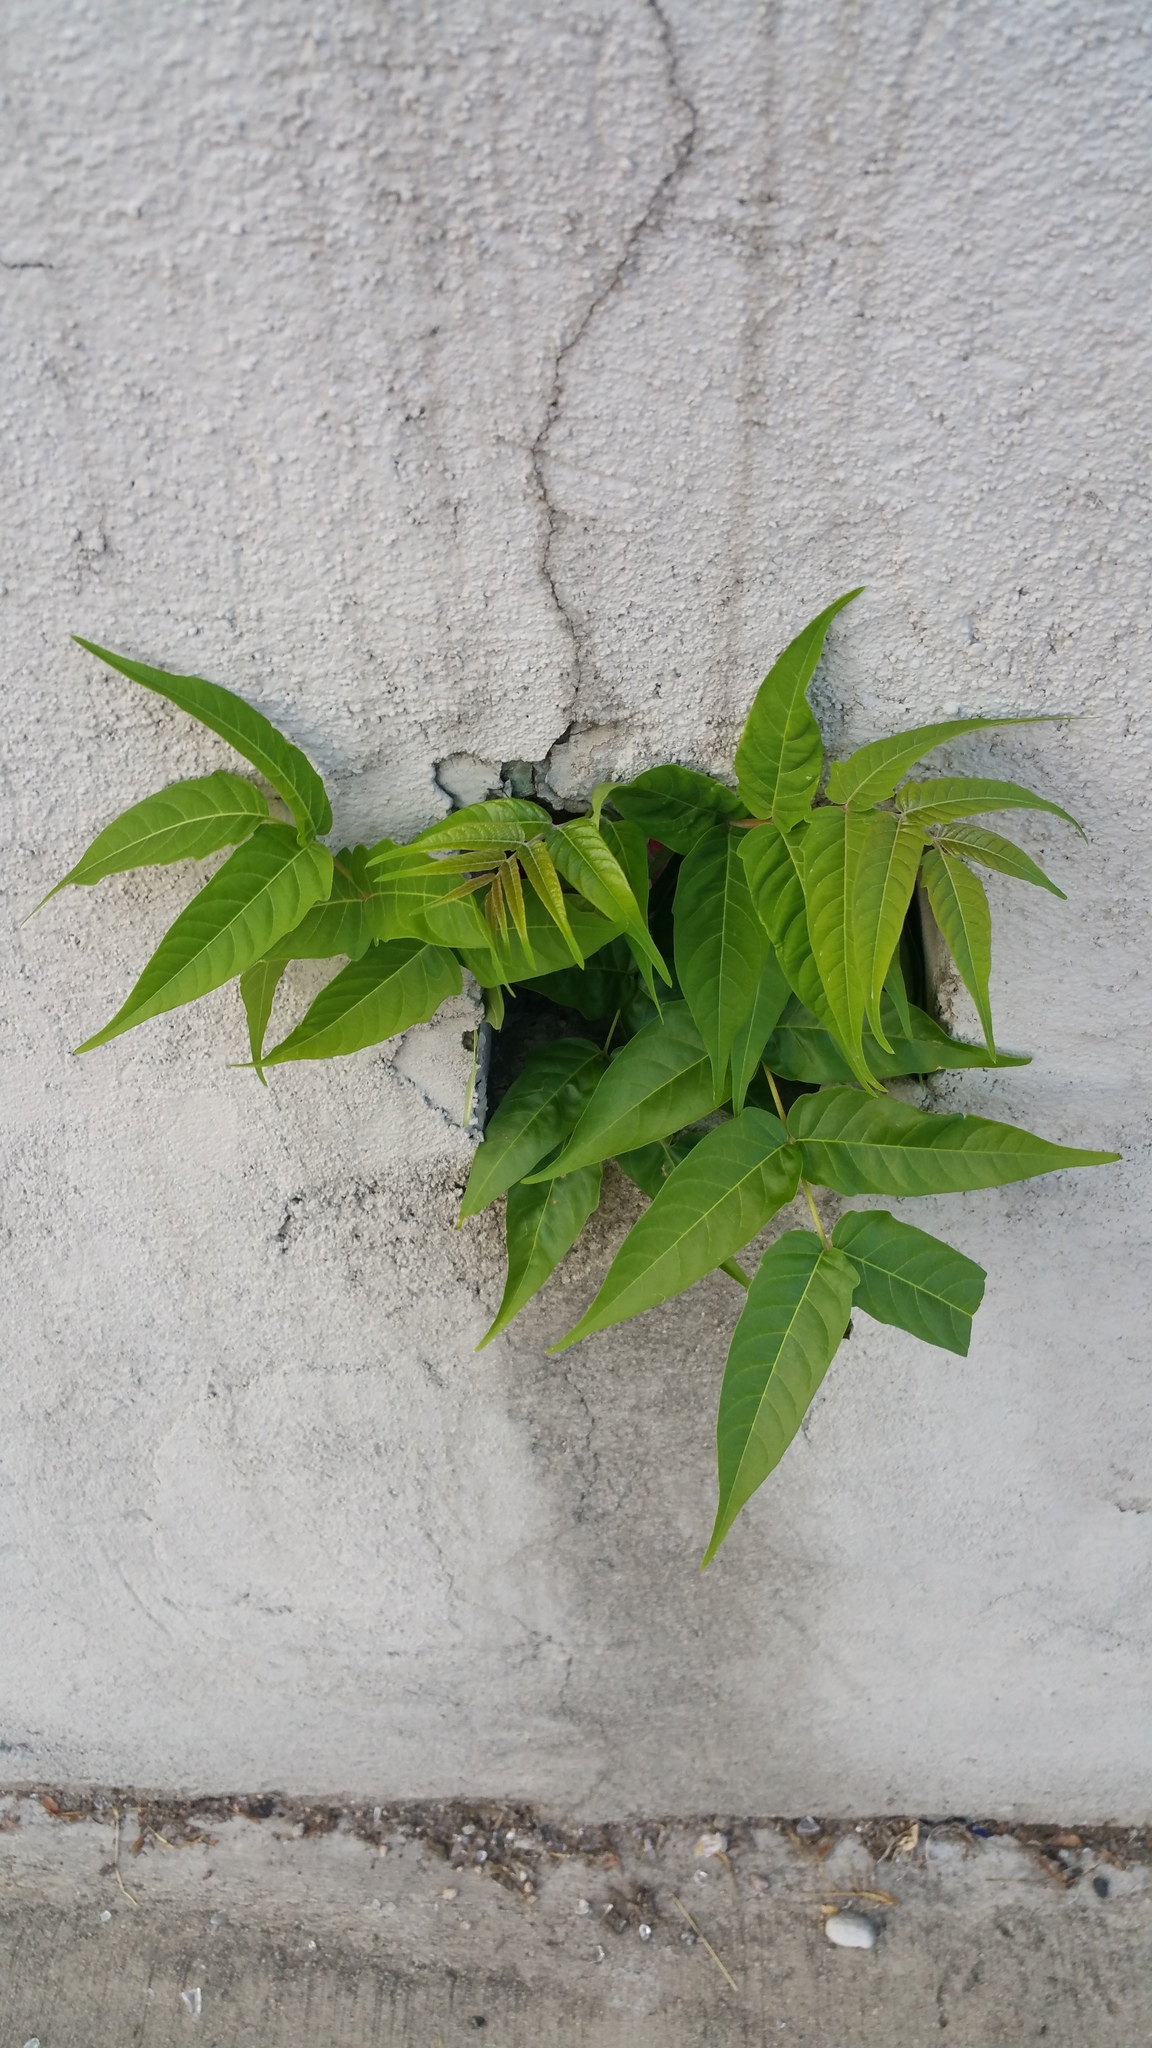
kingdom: Plantae
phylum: Tracheophyta
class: Magnoliopsida
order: Sapindales
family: Simaroubaceae
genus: Ailanthus
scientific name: Ailanthus altissima
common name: Tree-of-heaven
